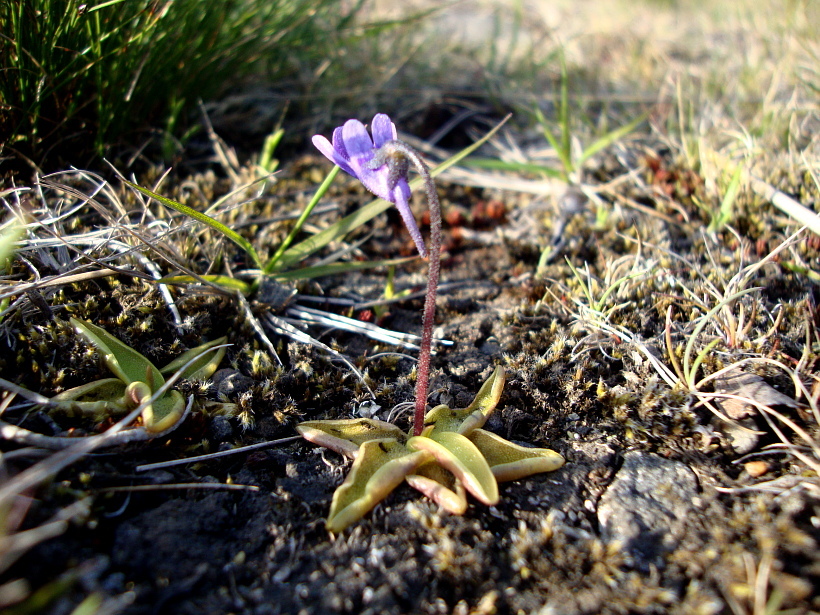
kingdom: Plantae
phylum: Tracheophyta
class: Magnoliopsida
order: Lamiales
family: Lentibulariaceae
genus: Pinguicula
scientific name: Pinguicula vulgaris
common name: Common butterwort
